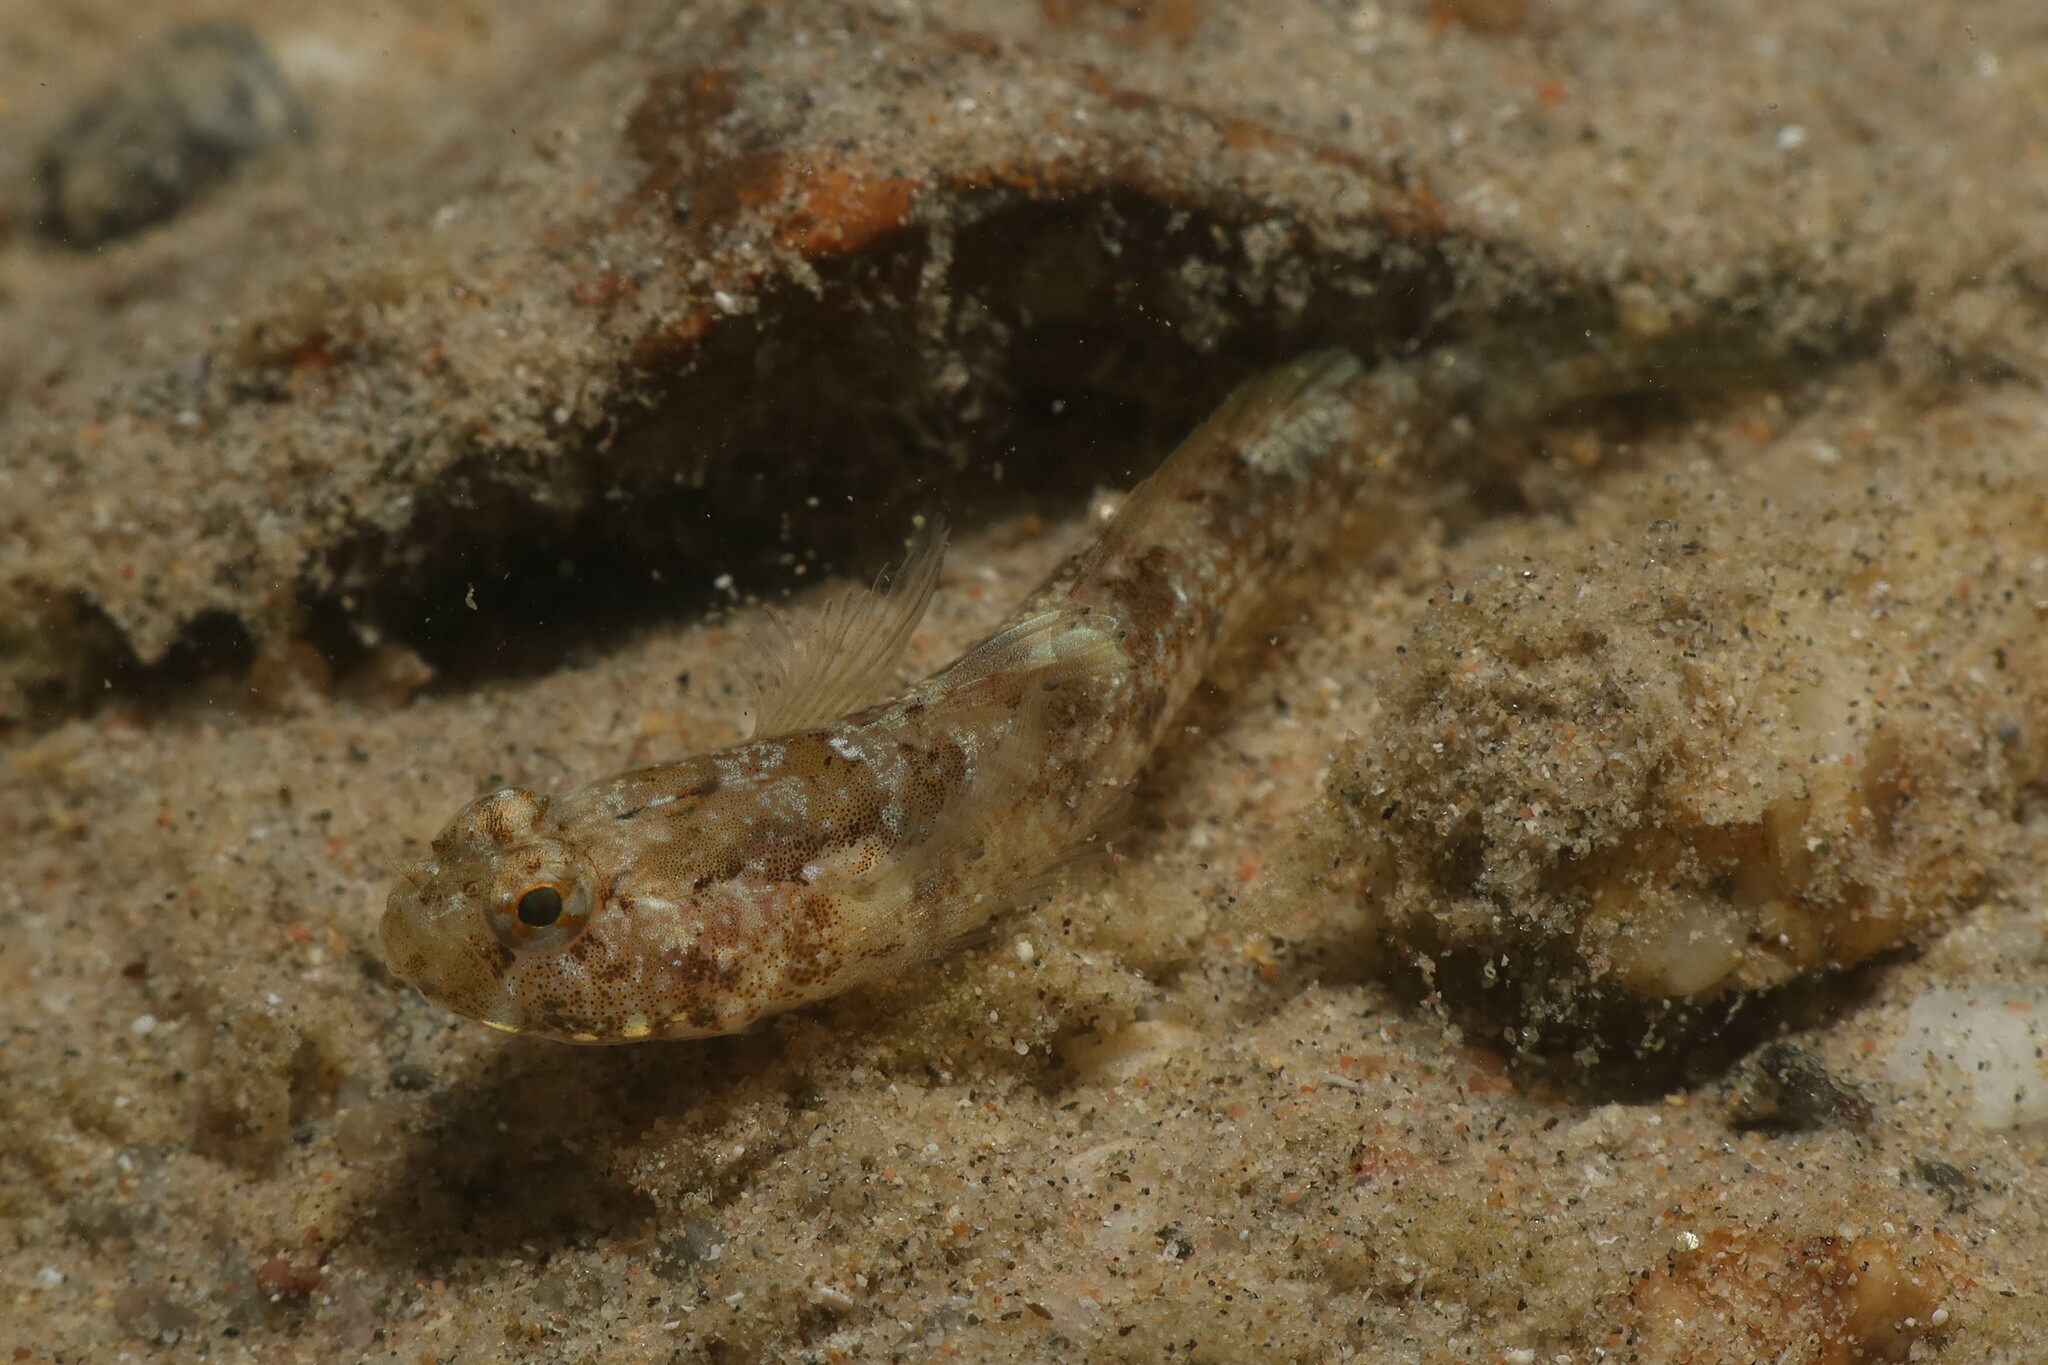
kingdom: Animalia
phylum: Chordata
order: Perciformes
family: Gobiidae
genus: Coryogalops
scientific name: Coryogalops anomolus
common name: Anomolous goby
